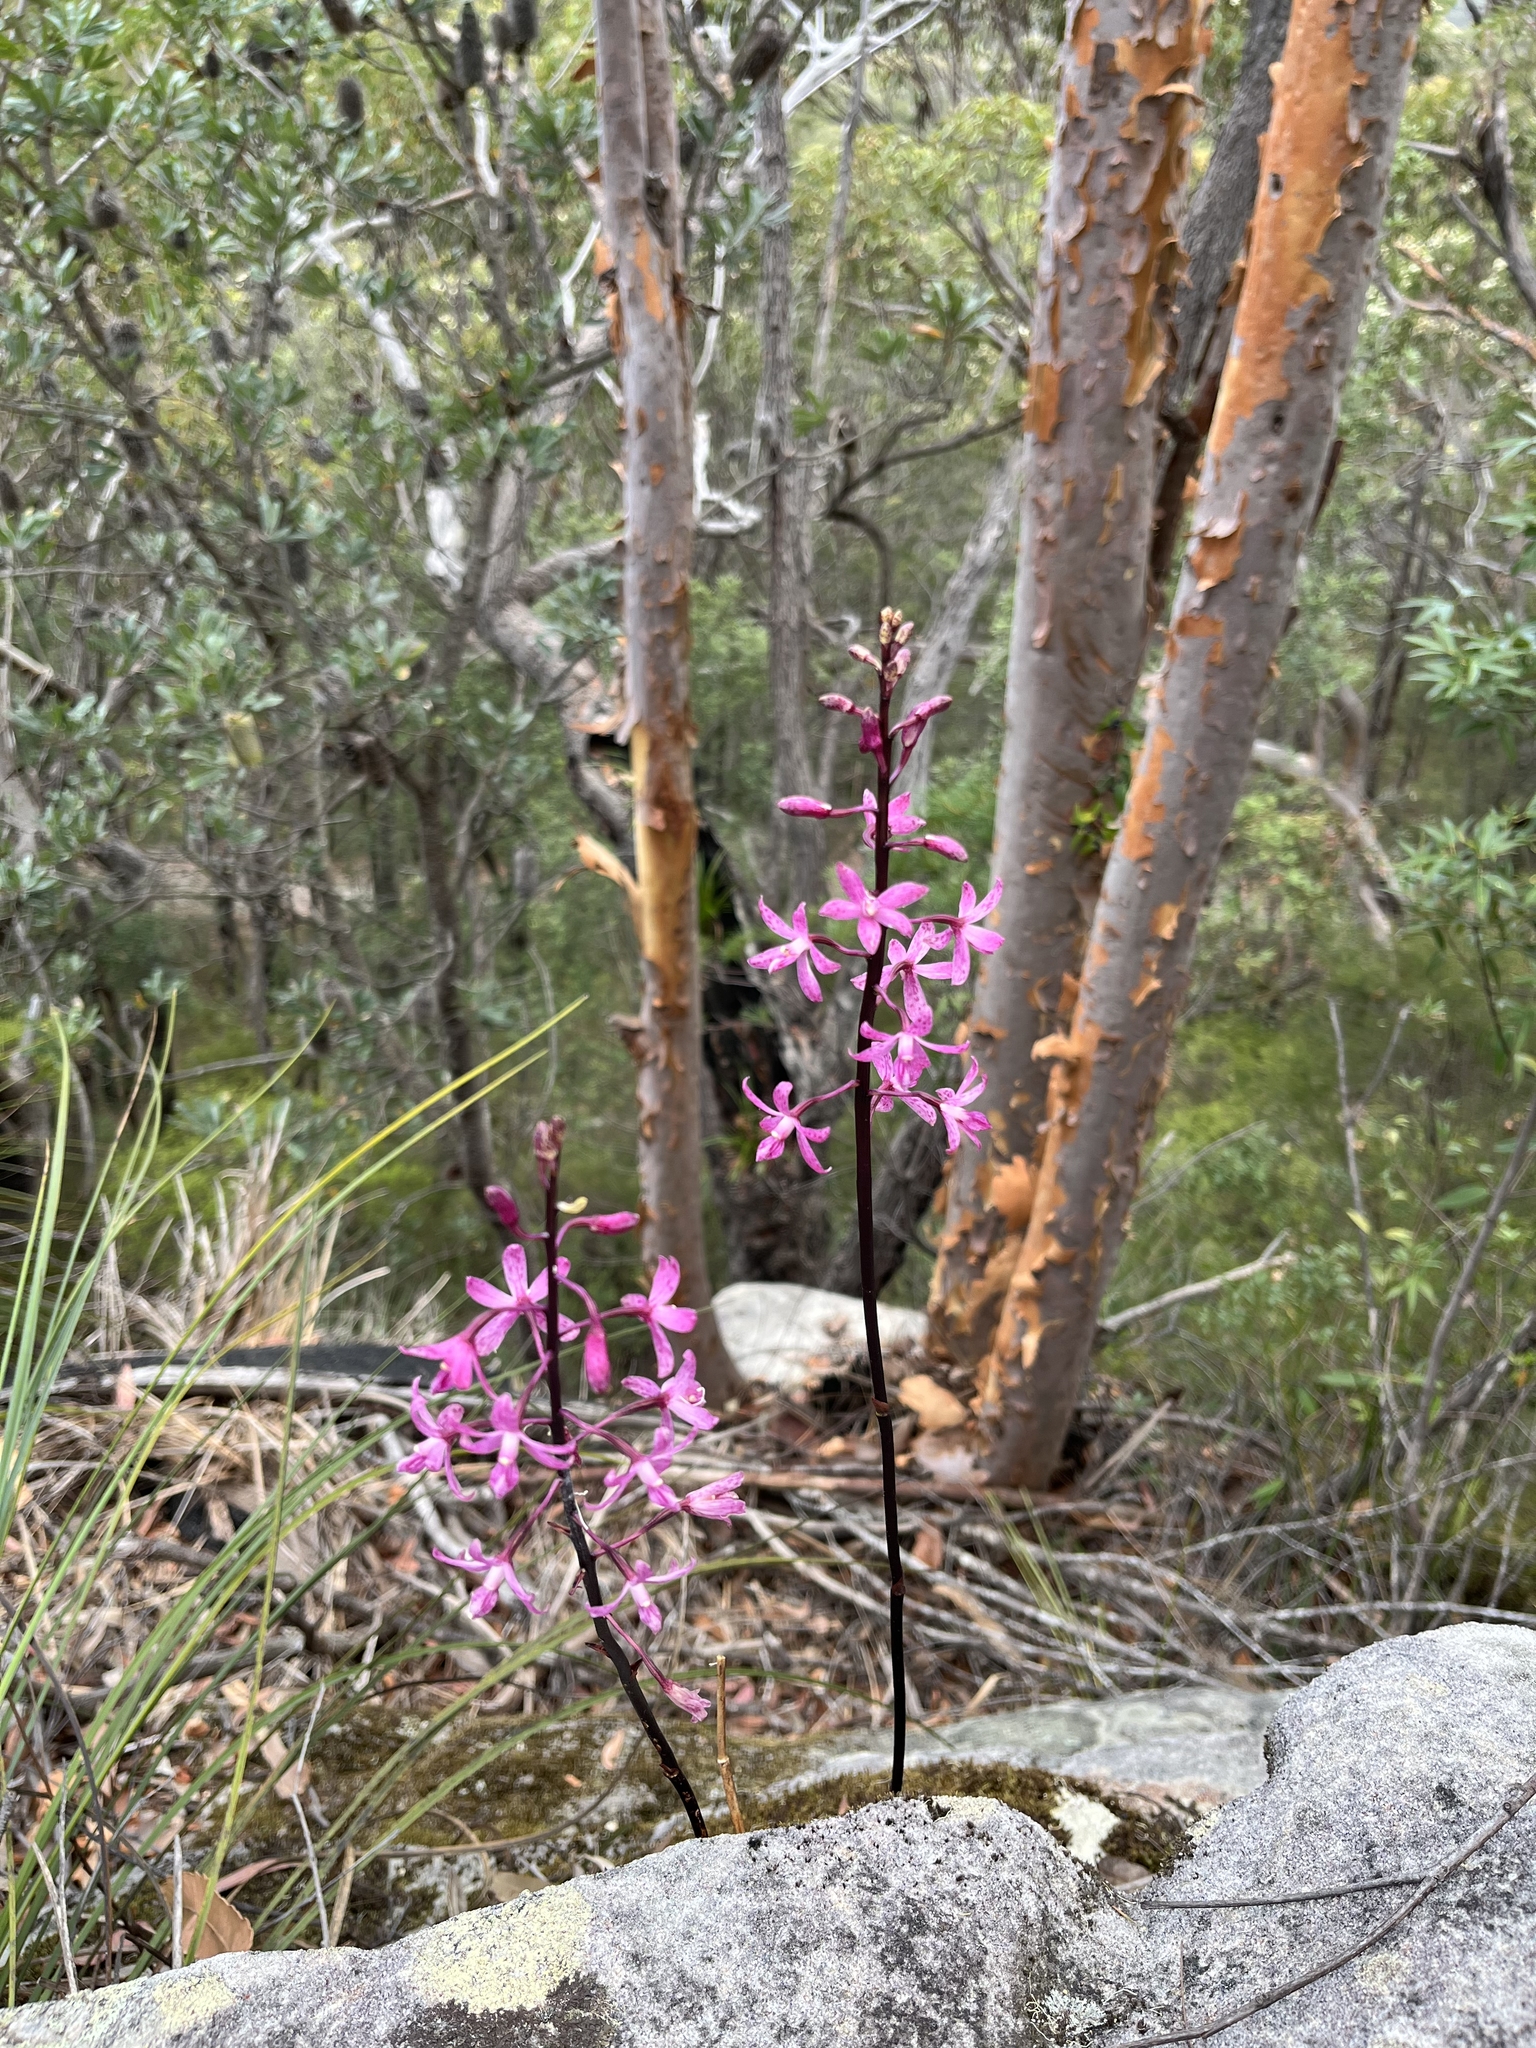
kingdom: Plantae
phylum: Tracheophyta
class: Liliopsida
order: Asparagales
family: Orchidaceae
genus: Dipodium
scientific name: Dipodium roseum
